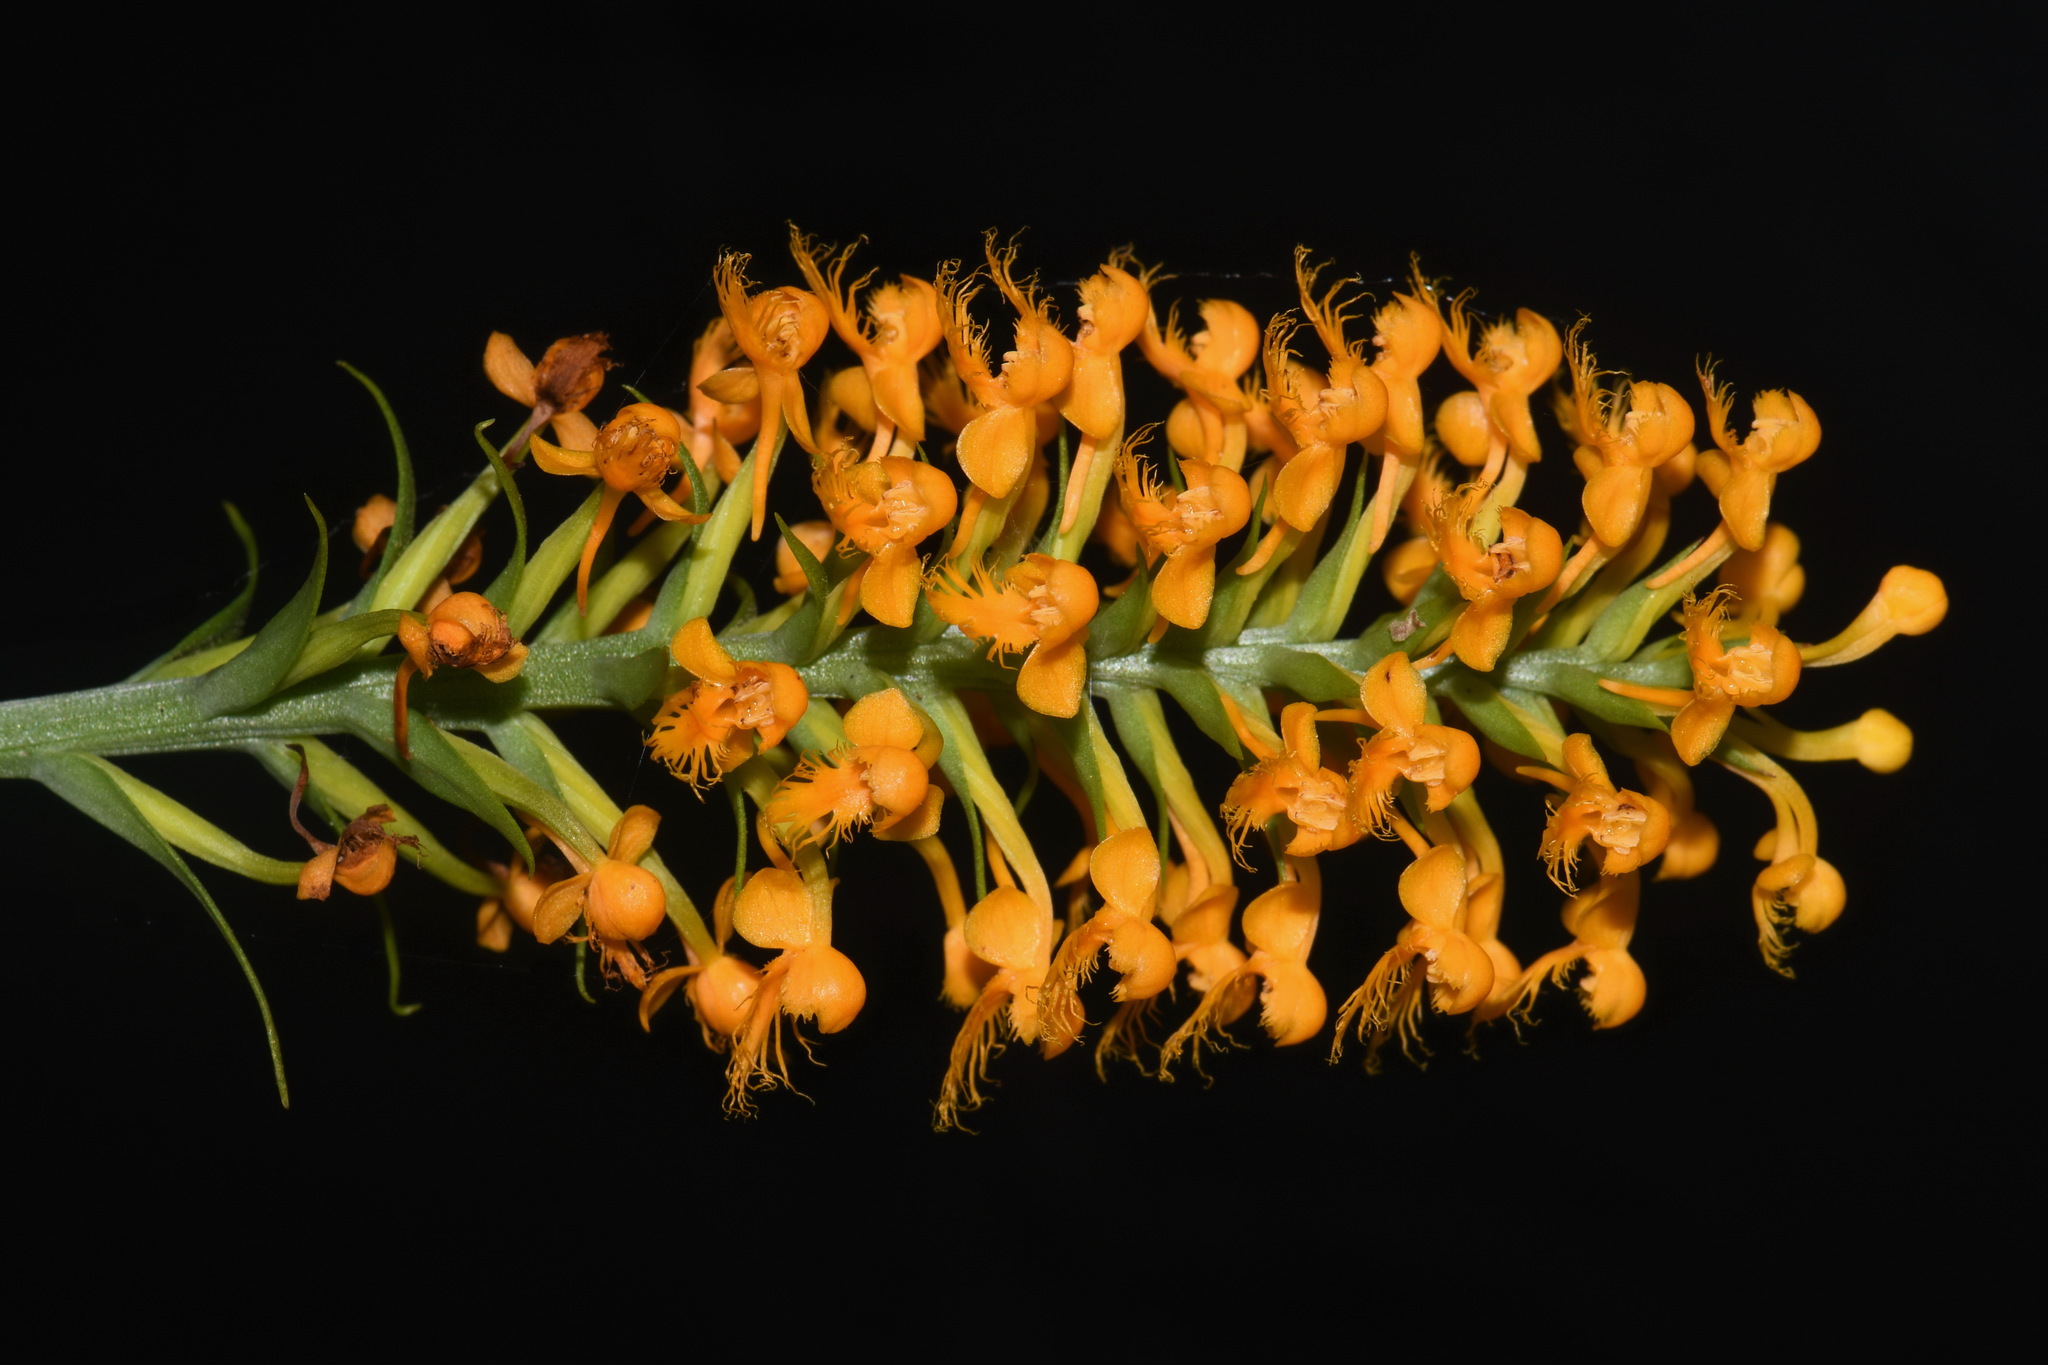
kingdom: Plantae
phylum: Tracheophyta
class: Liliopsida
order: Asparagales
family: Orchidaceae
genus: Platanthera
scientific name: Platanthera cristata
